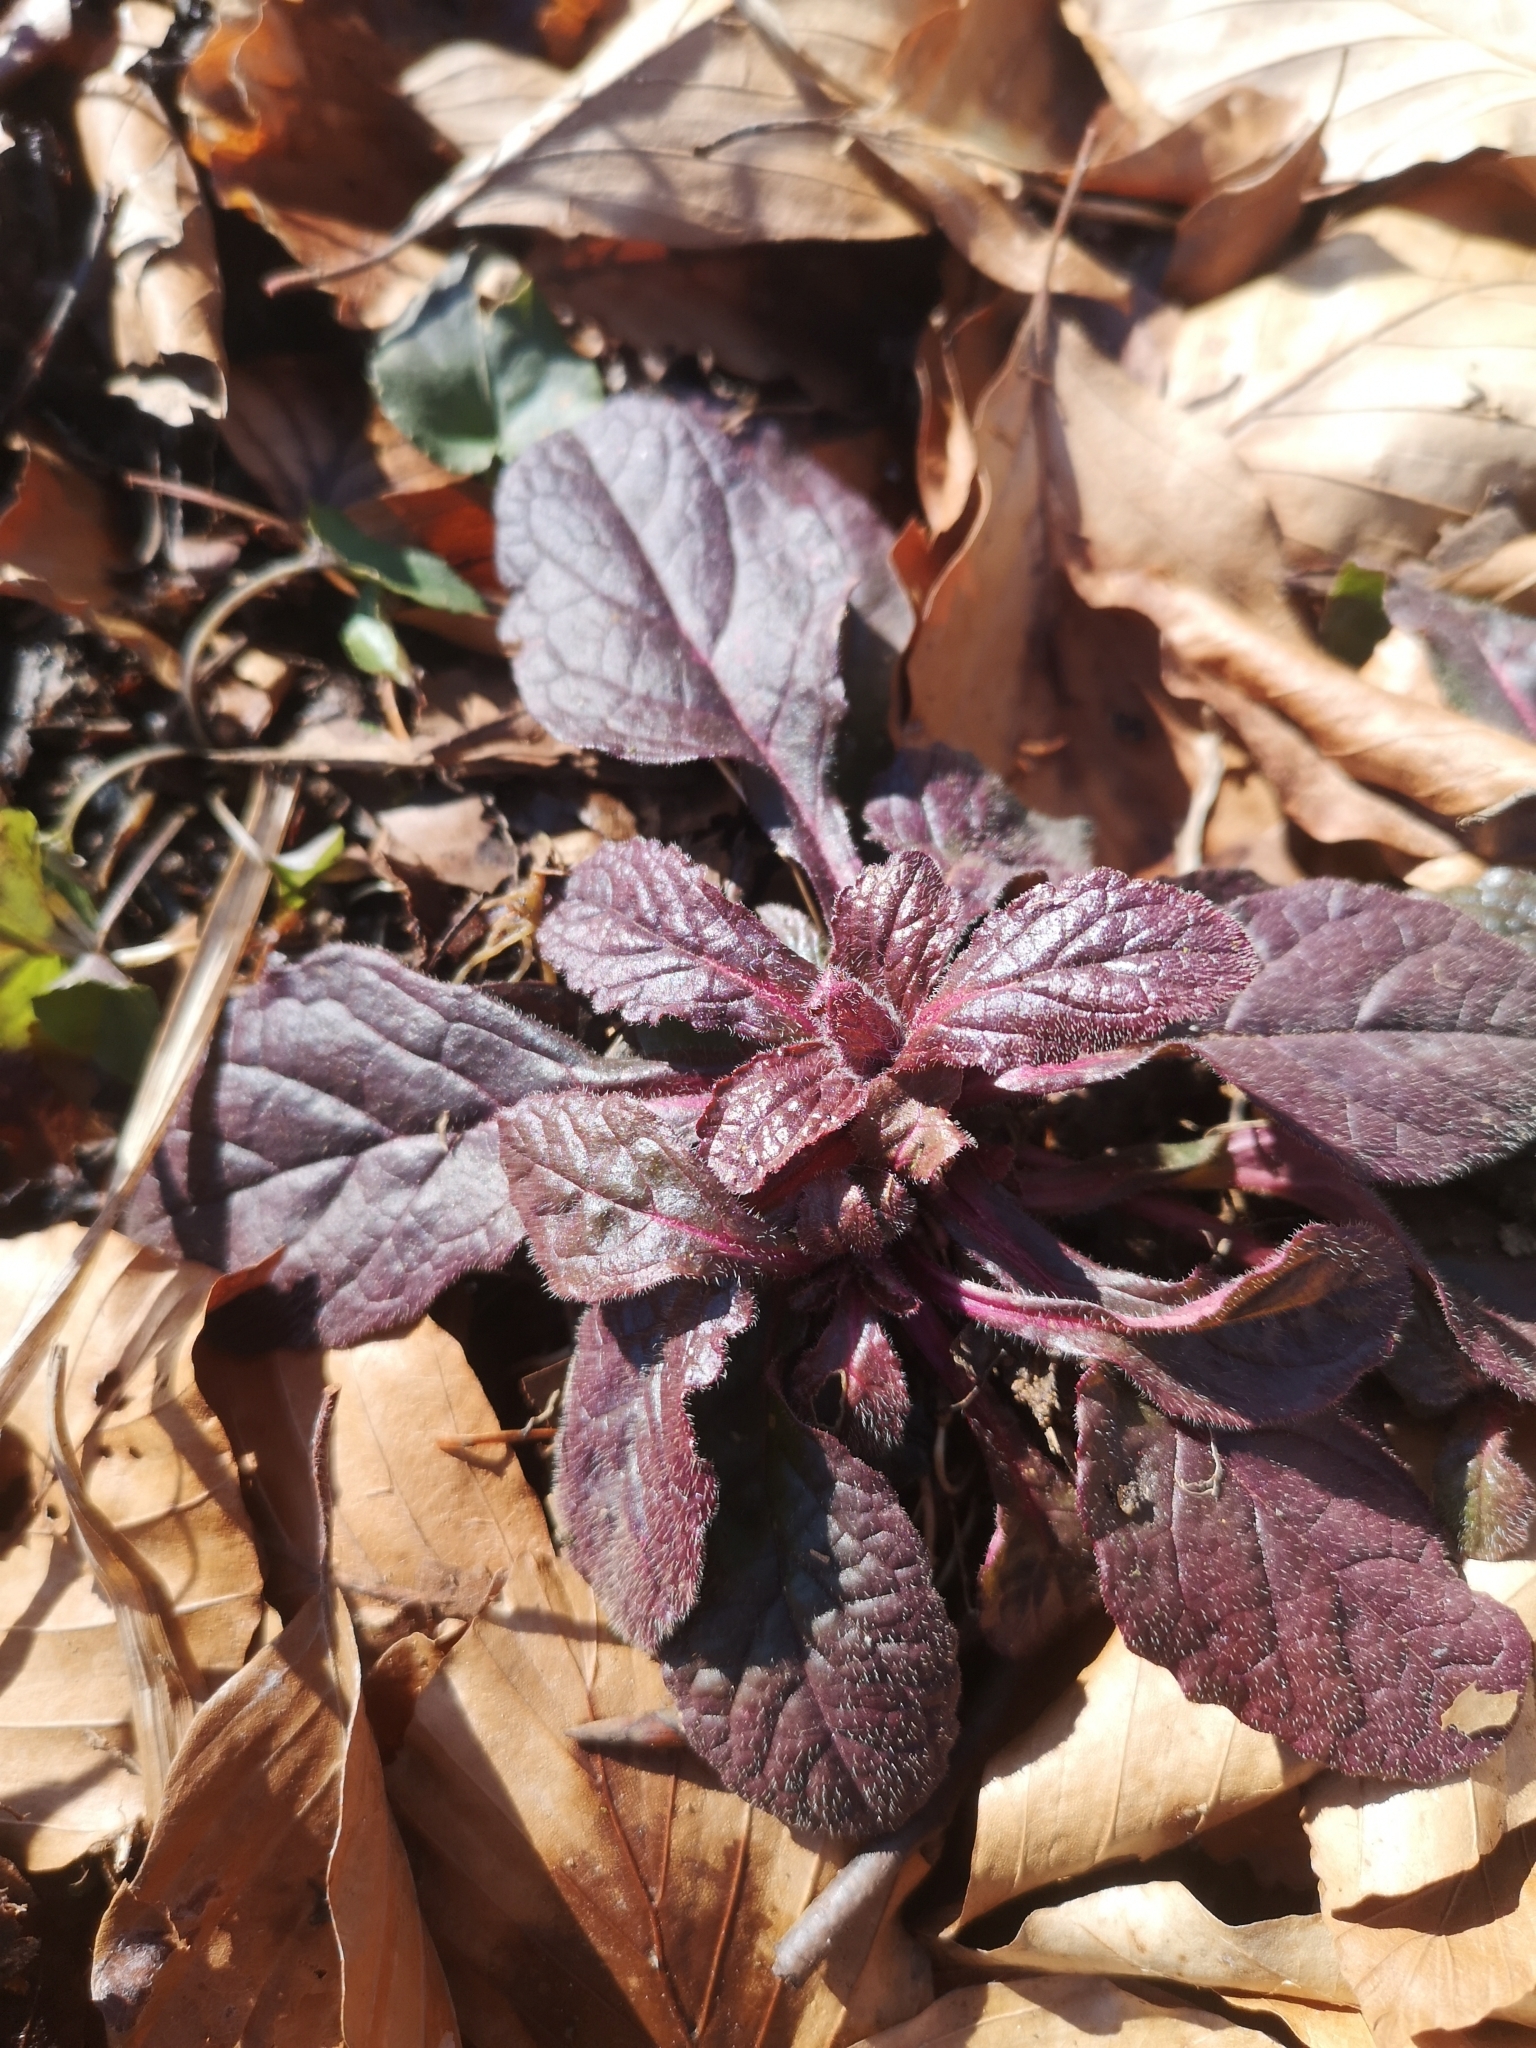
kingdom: Plantae
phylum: Tracheophyta
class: Magnoliopsida
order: Lamiales
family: Lamiaceae
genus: Ajuga
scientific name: Ajuga reptans
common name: Bugle
